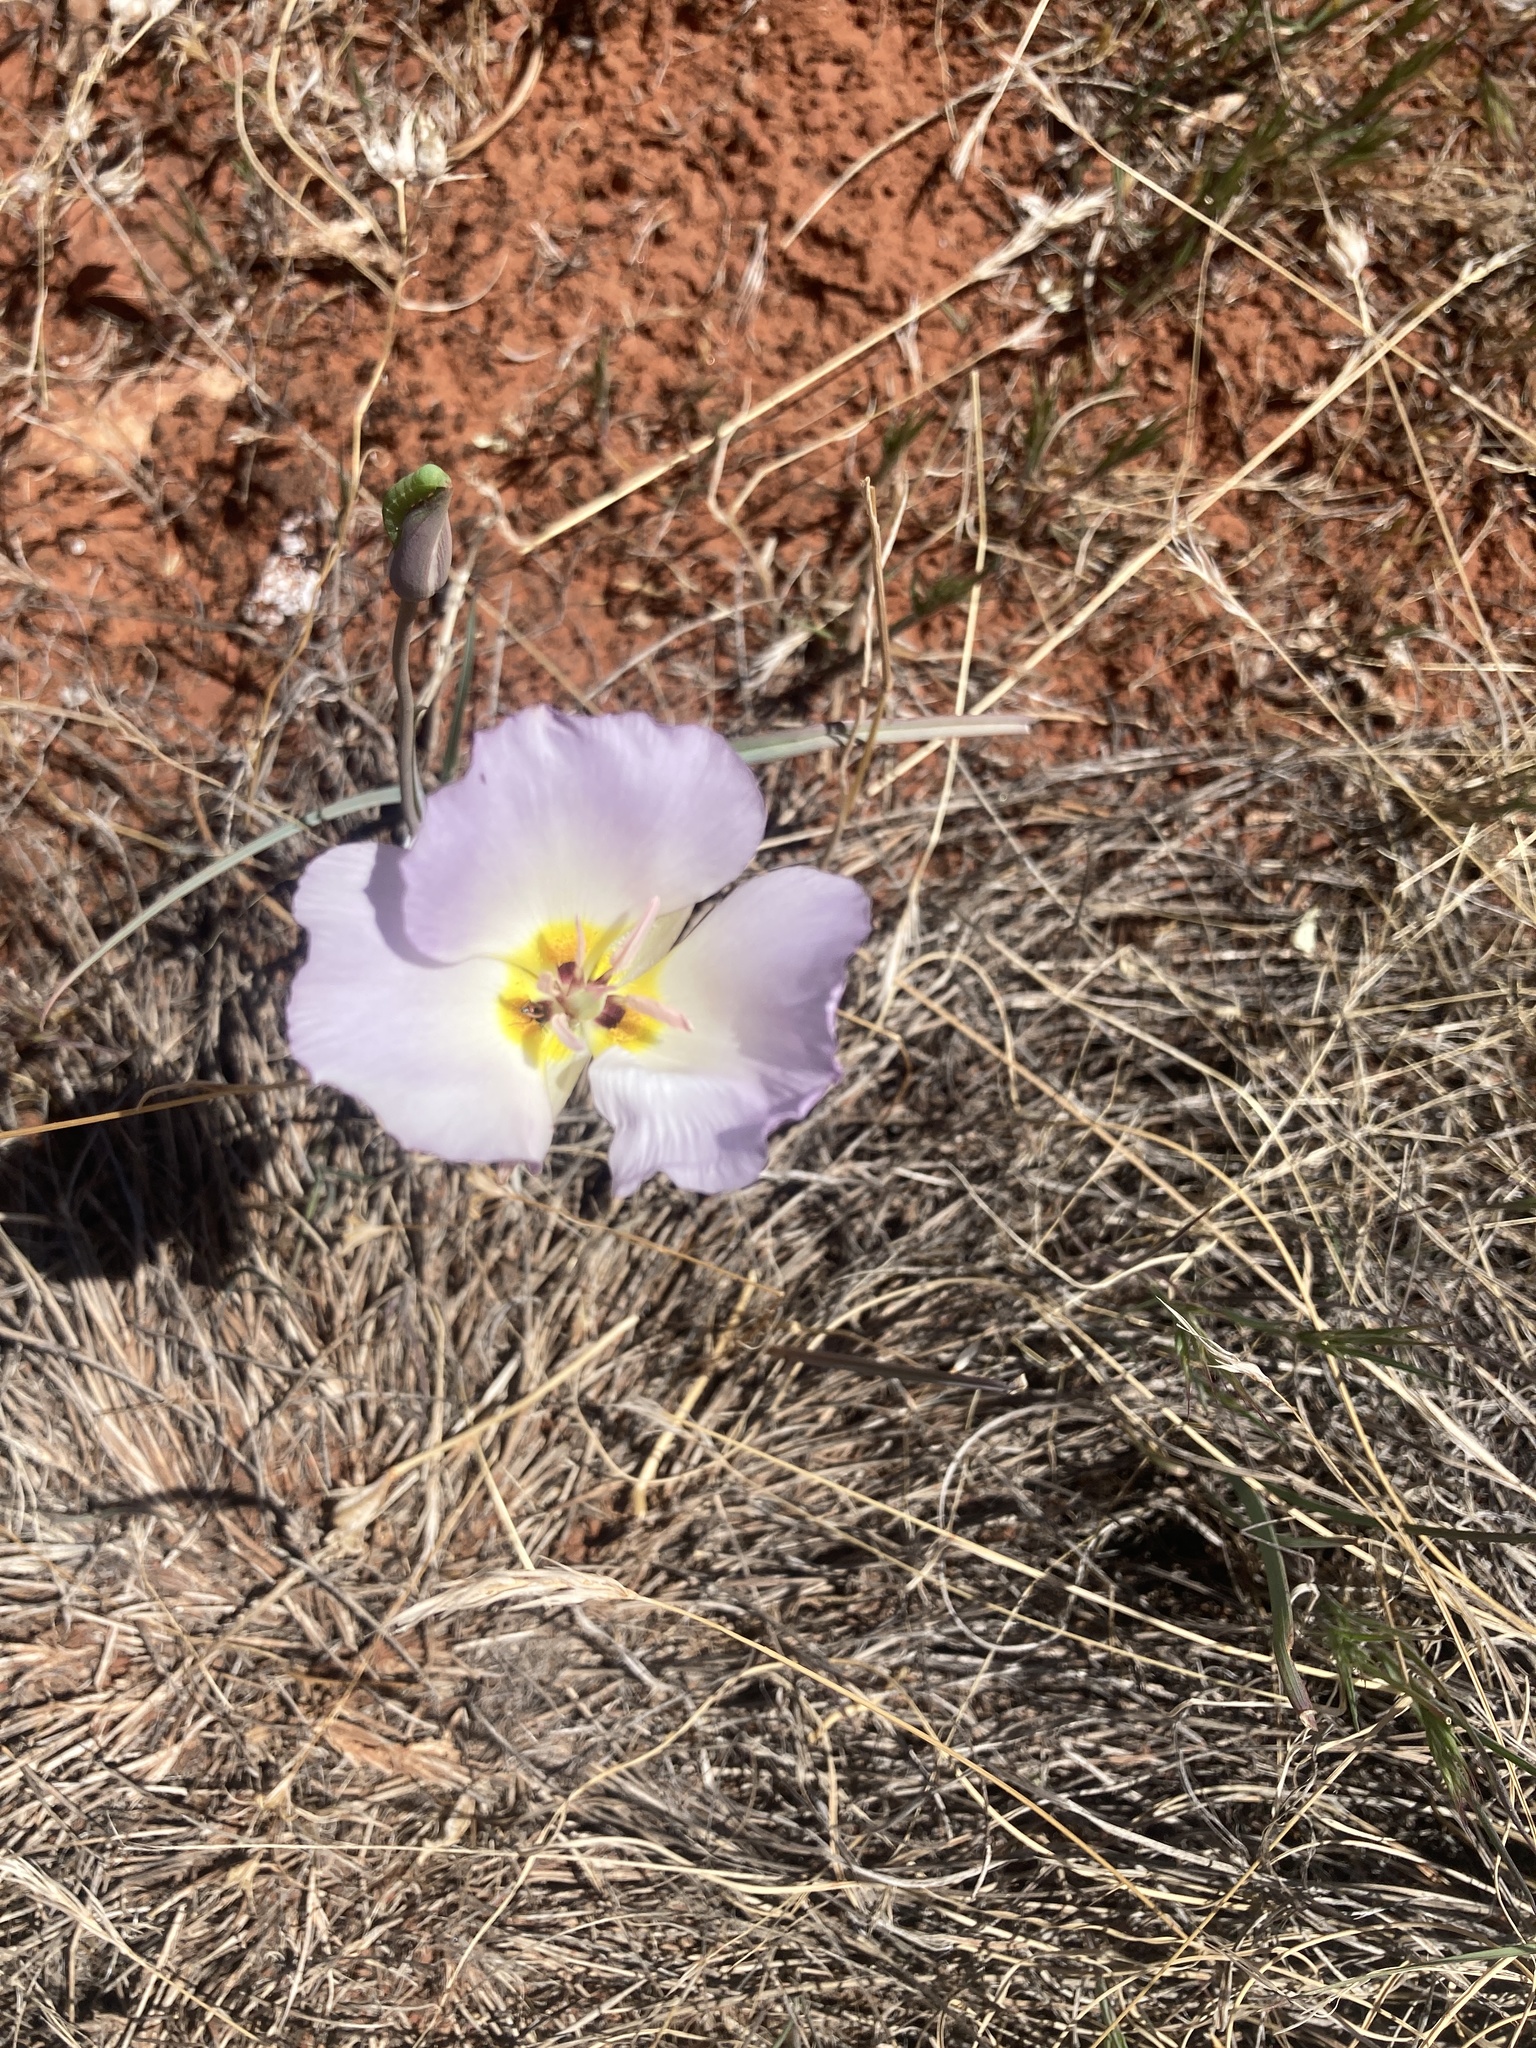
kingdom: Plantae
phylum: Tracheophyta
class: Liliopsida
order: Liliales
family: Liliaceae
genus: Calochortus
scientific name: Calochortus flexuosus
